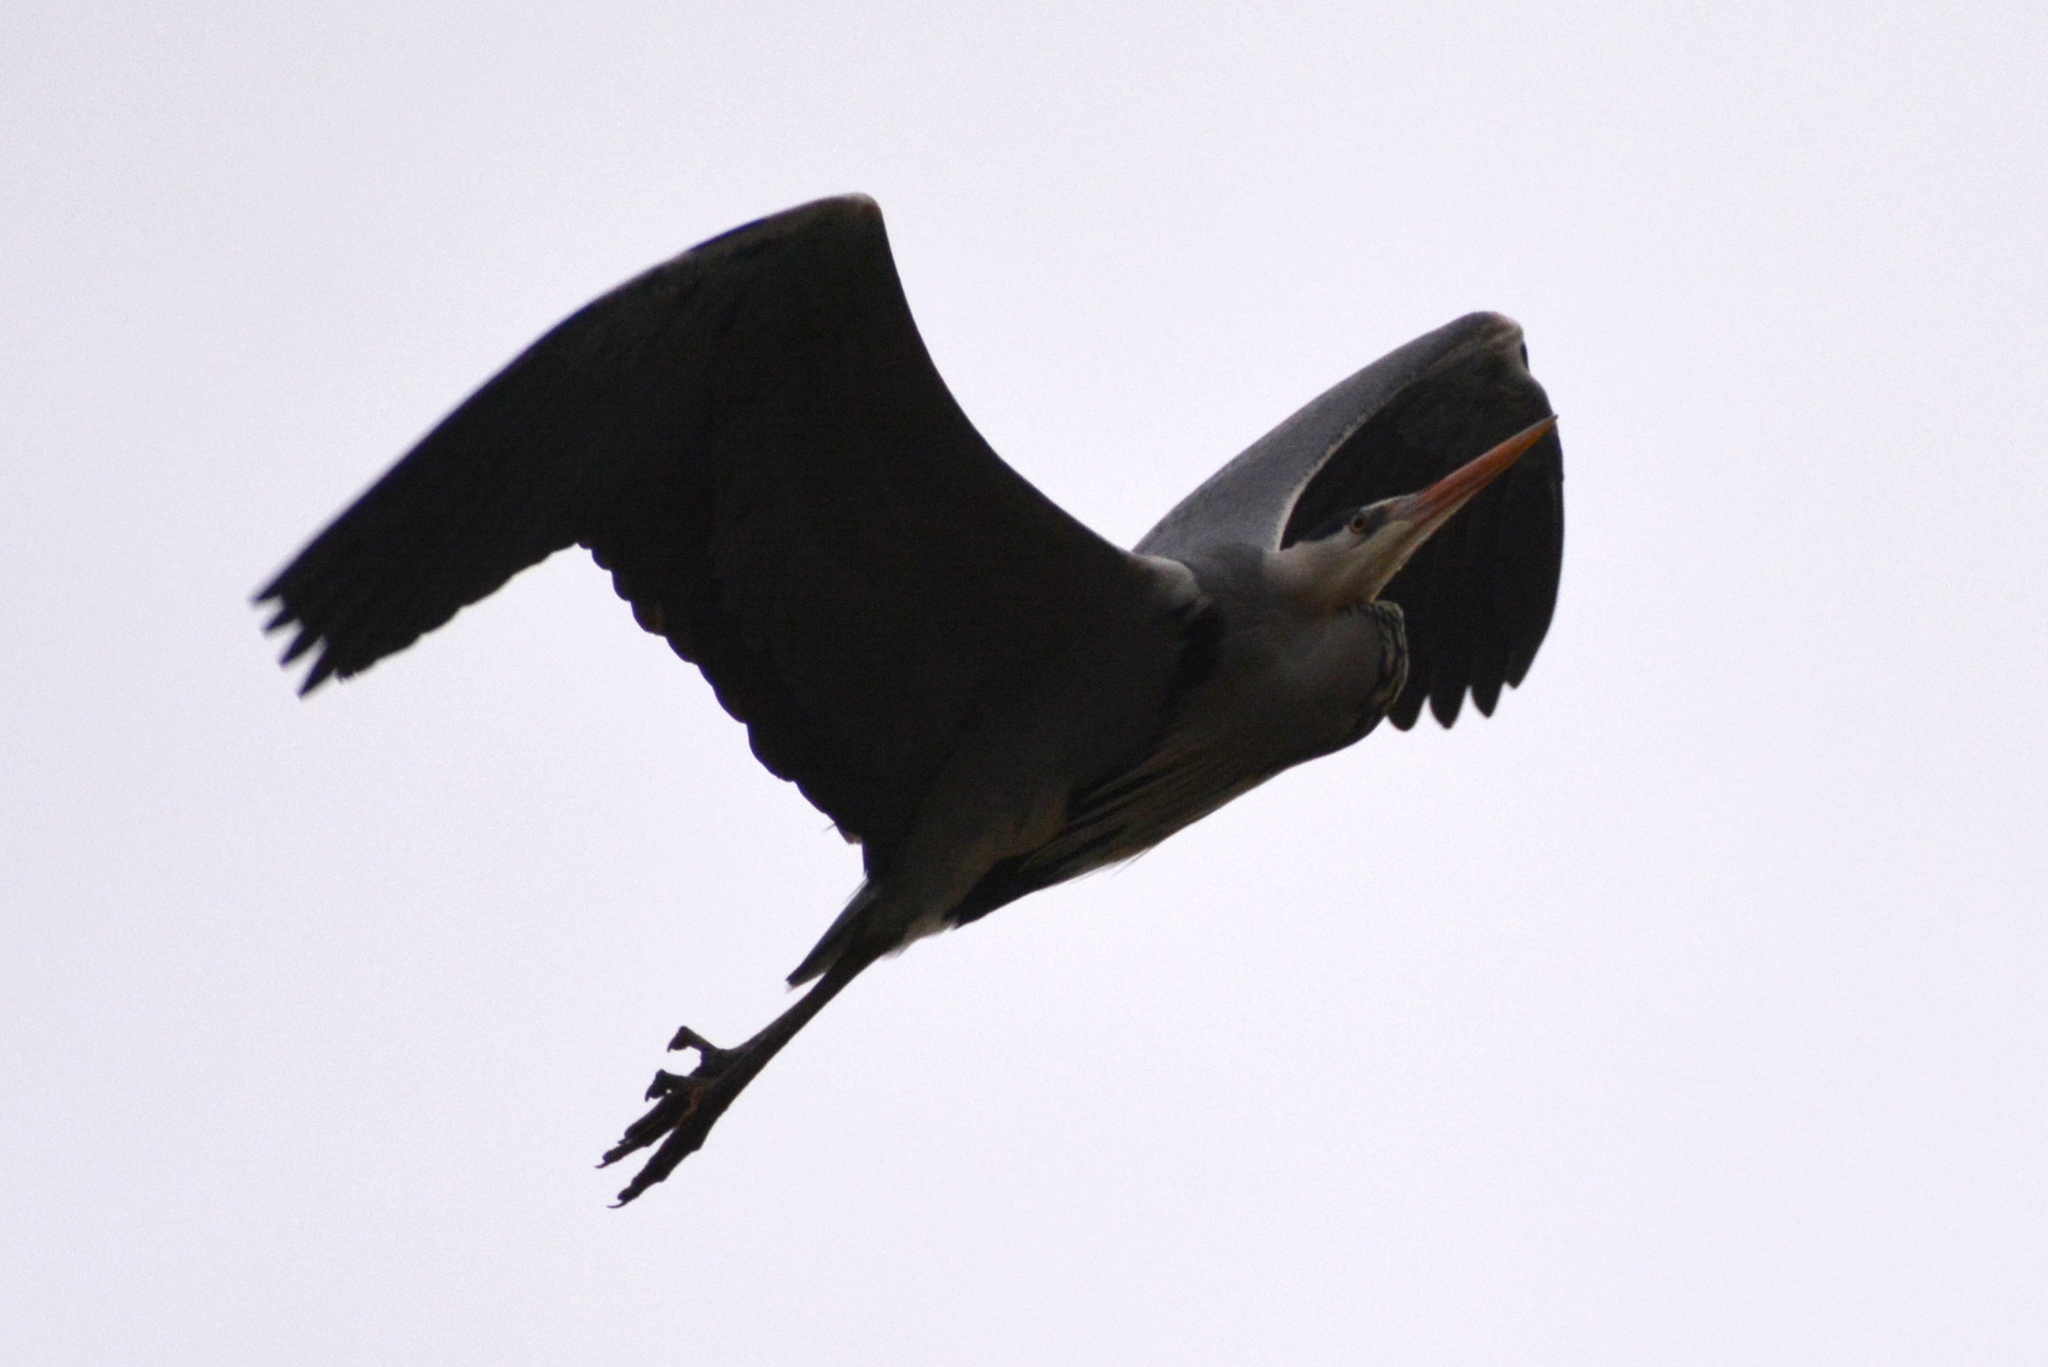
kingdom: Animalia
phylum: Chordata
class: Aves
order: Pelecaniformes
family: Ardeidae
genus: Ardea
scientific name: Ardea cinerea
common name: Grey heron
